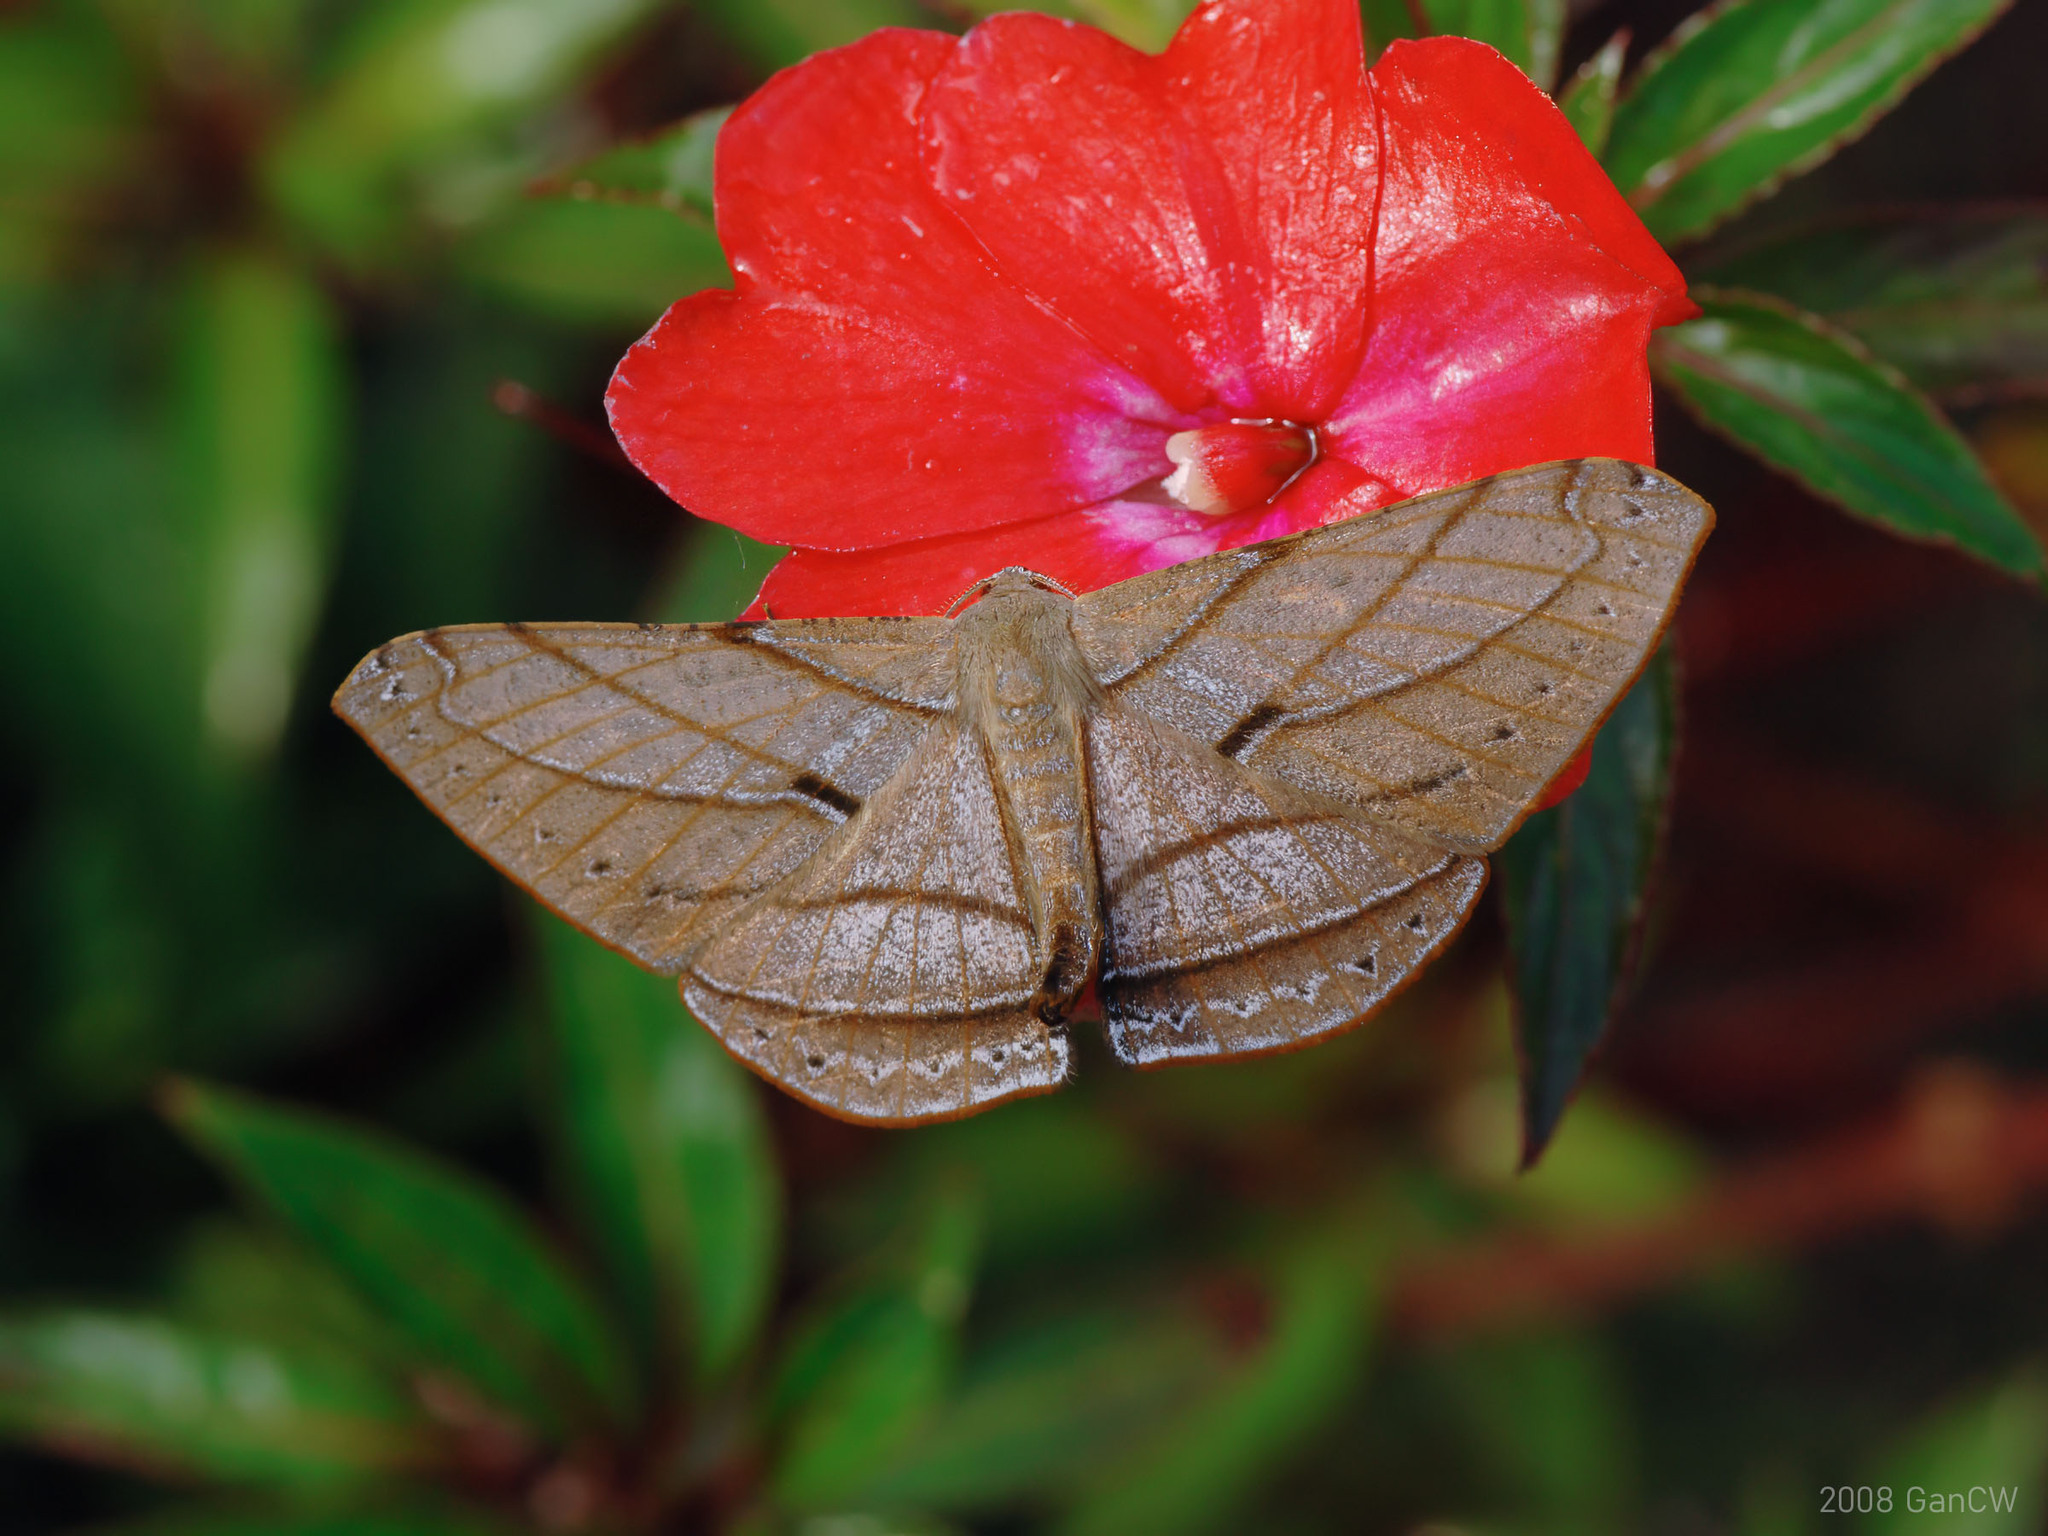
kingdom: Animalia
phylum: Arthropoda
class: Insecta
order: Lepidoptera
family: Geometridae
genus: Dalima
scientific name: Dalima patularia
